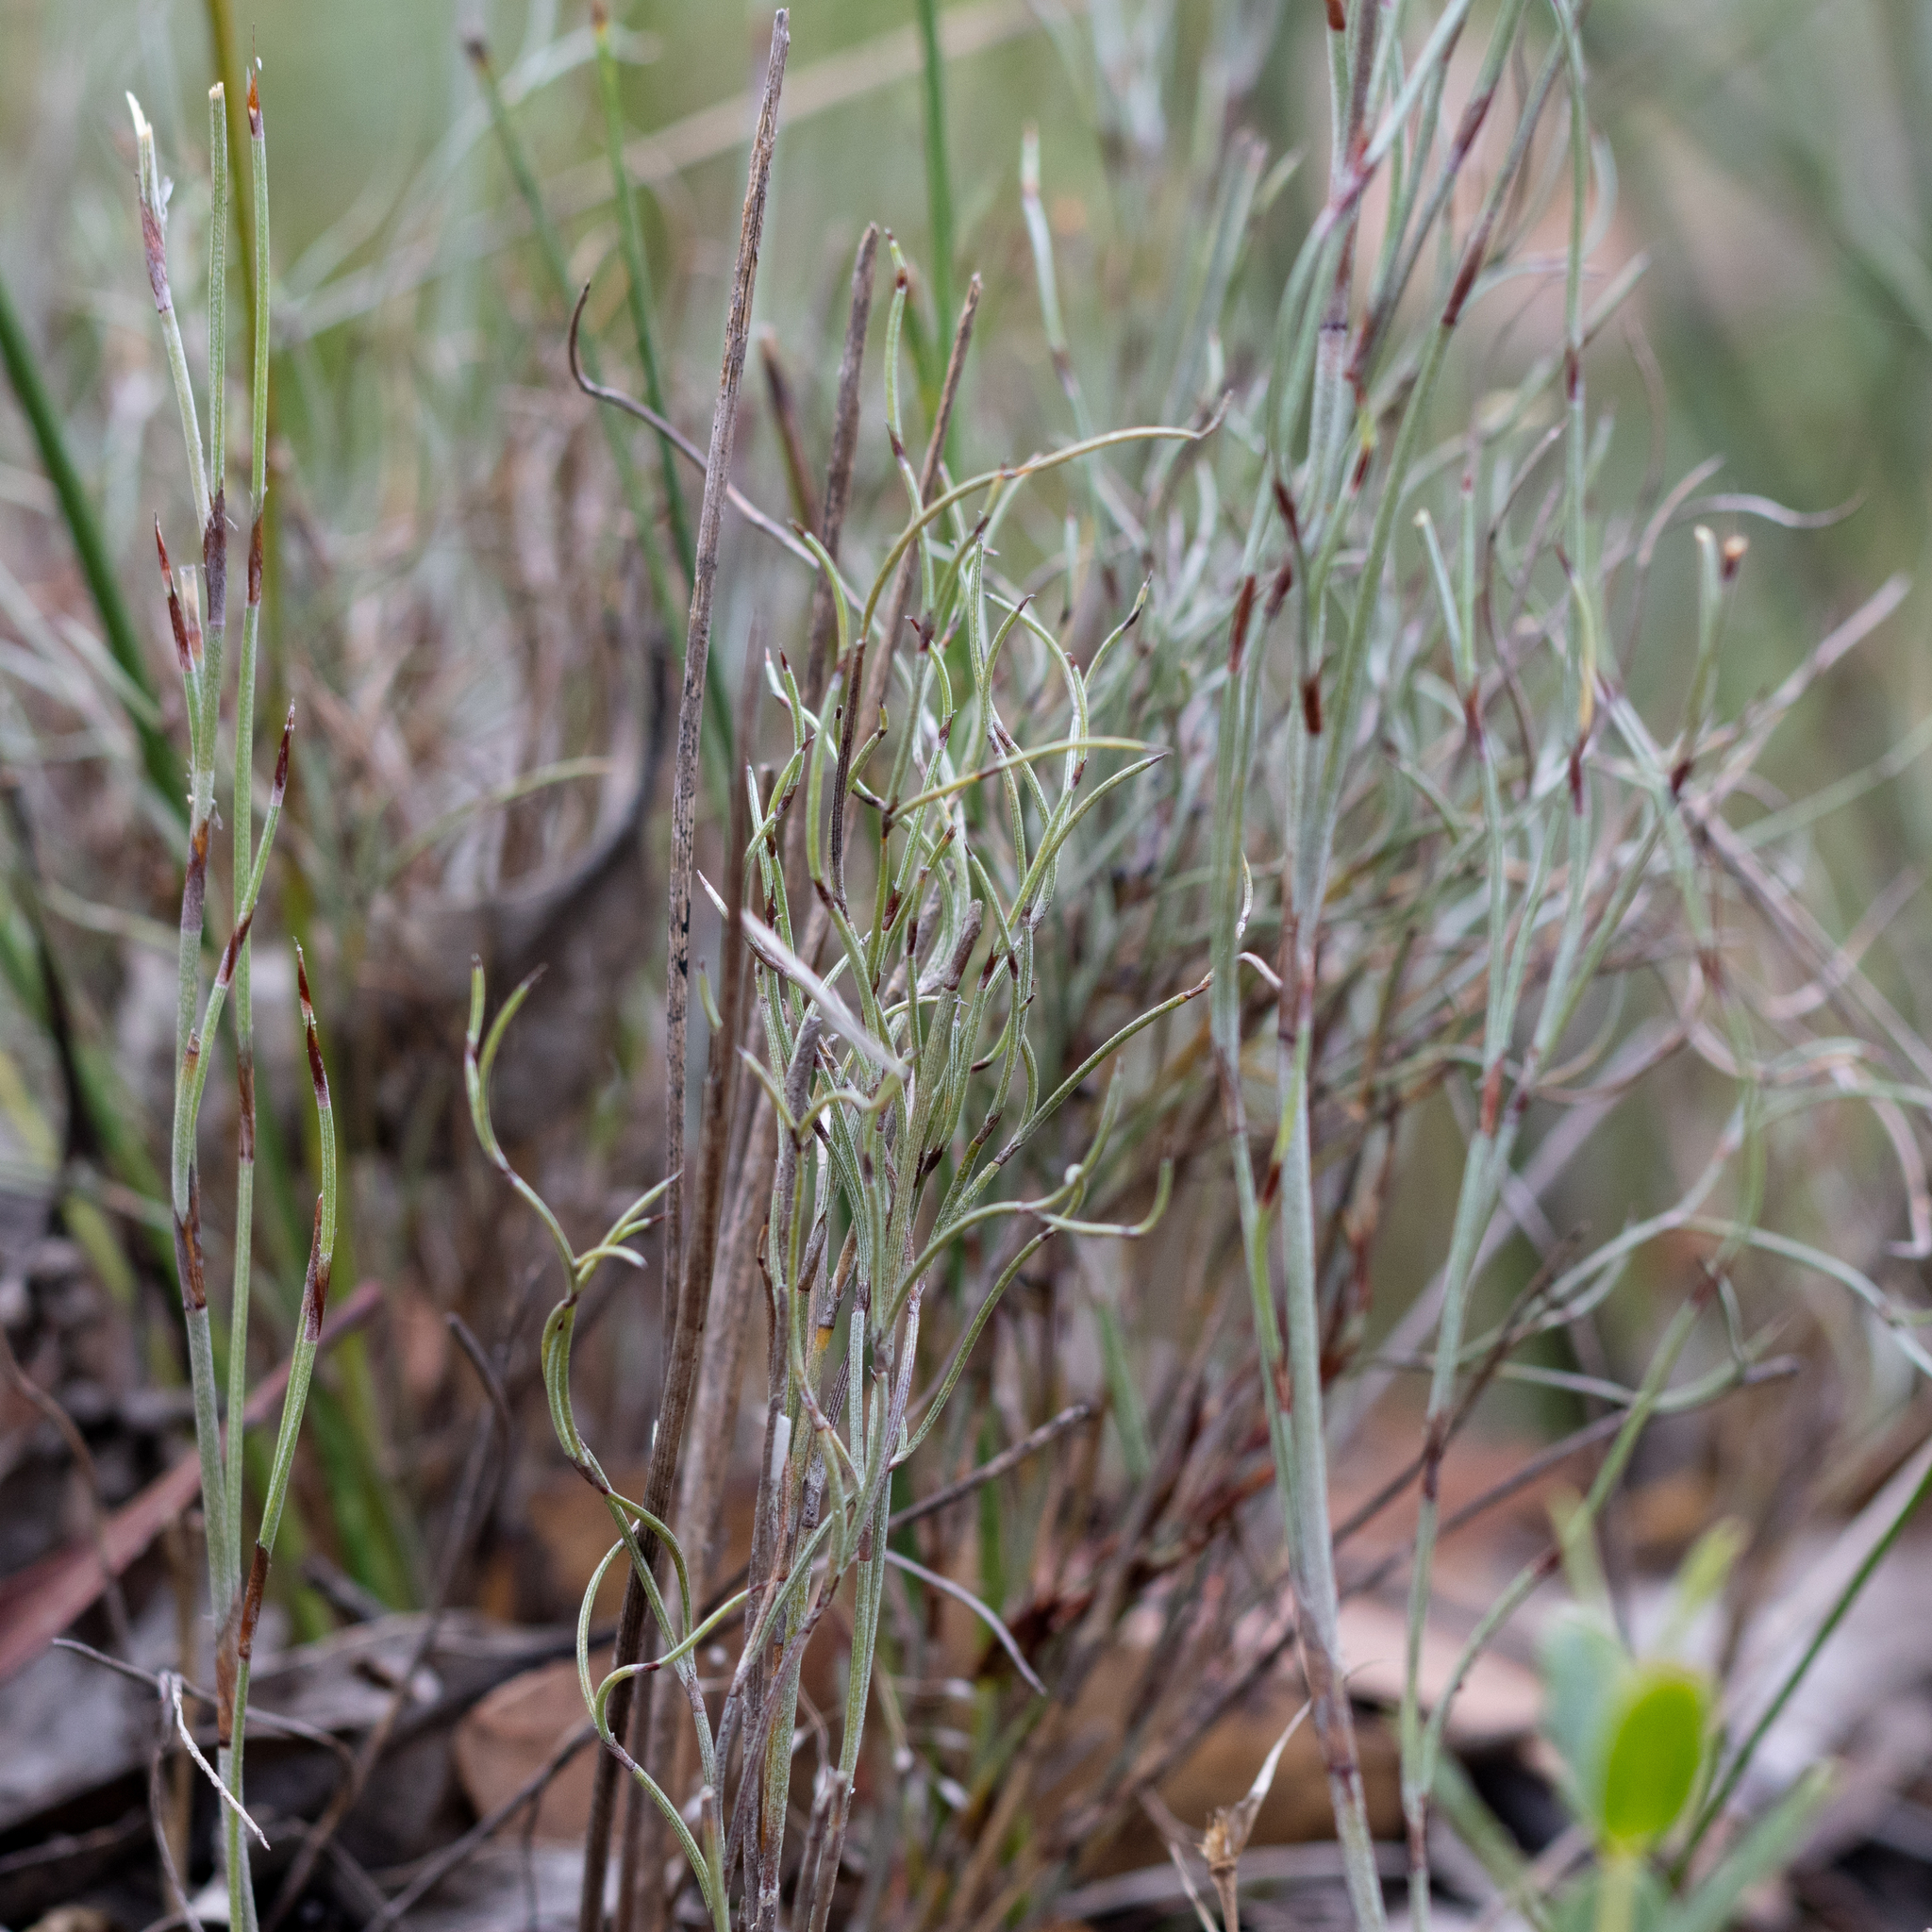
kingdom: Plantae
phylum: Tracheophyta
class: Liliopsida
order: Poales
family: Restionaceae
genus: Hypolaena
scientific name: Hypolaena fastigiata
